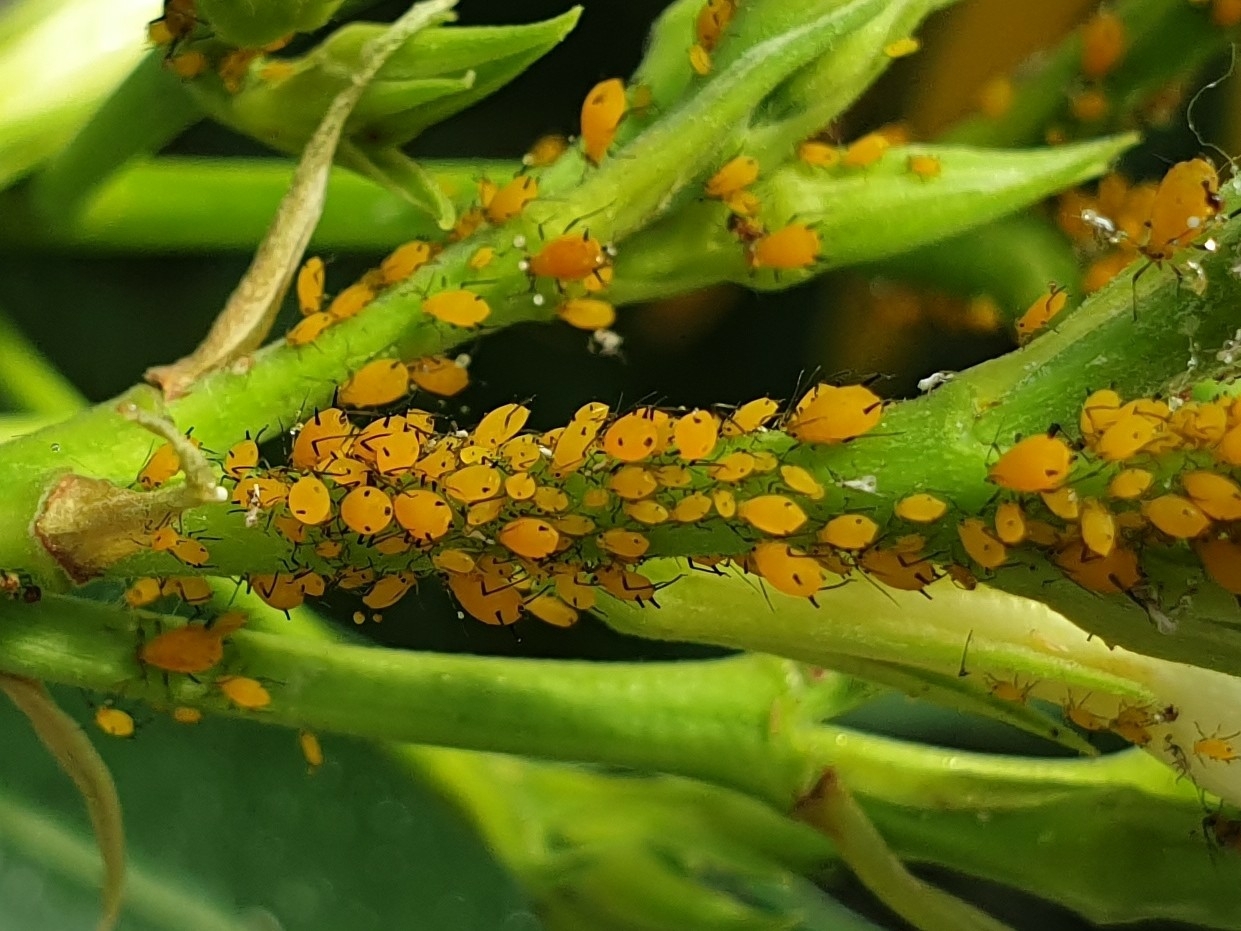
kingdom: Animalia
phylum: Arthropoda
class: Insecta
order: Hemiptera
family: Aphididae
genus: Aphis
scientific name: Aphis nerii
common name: Oleander aphid
